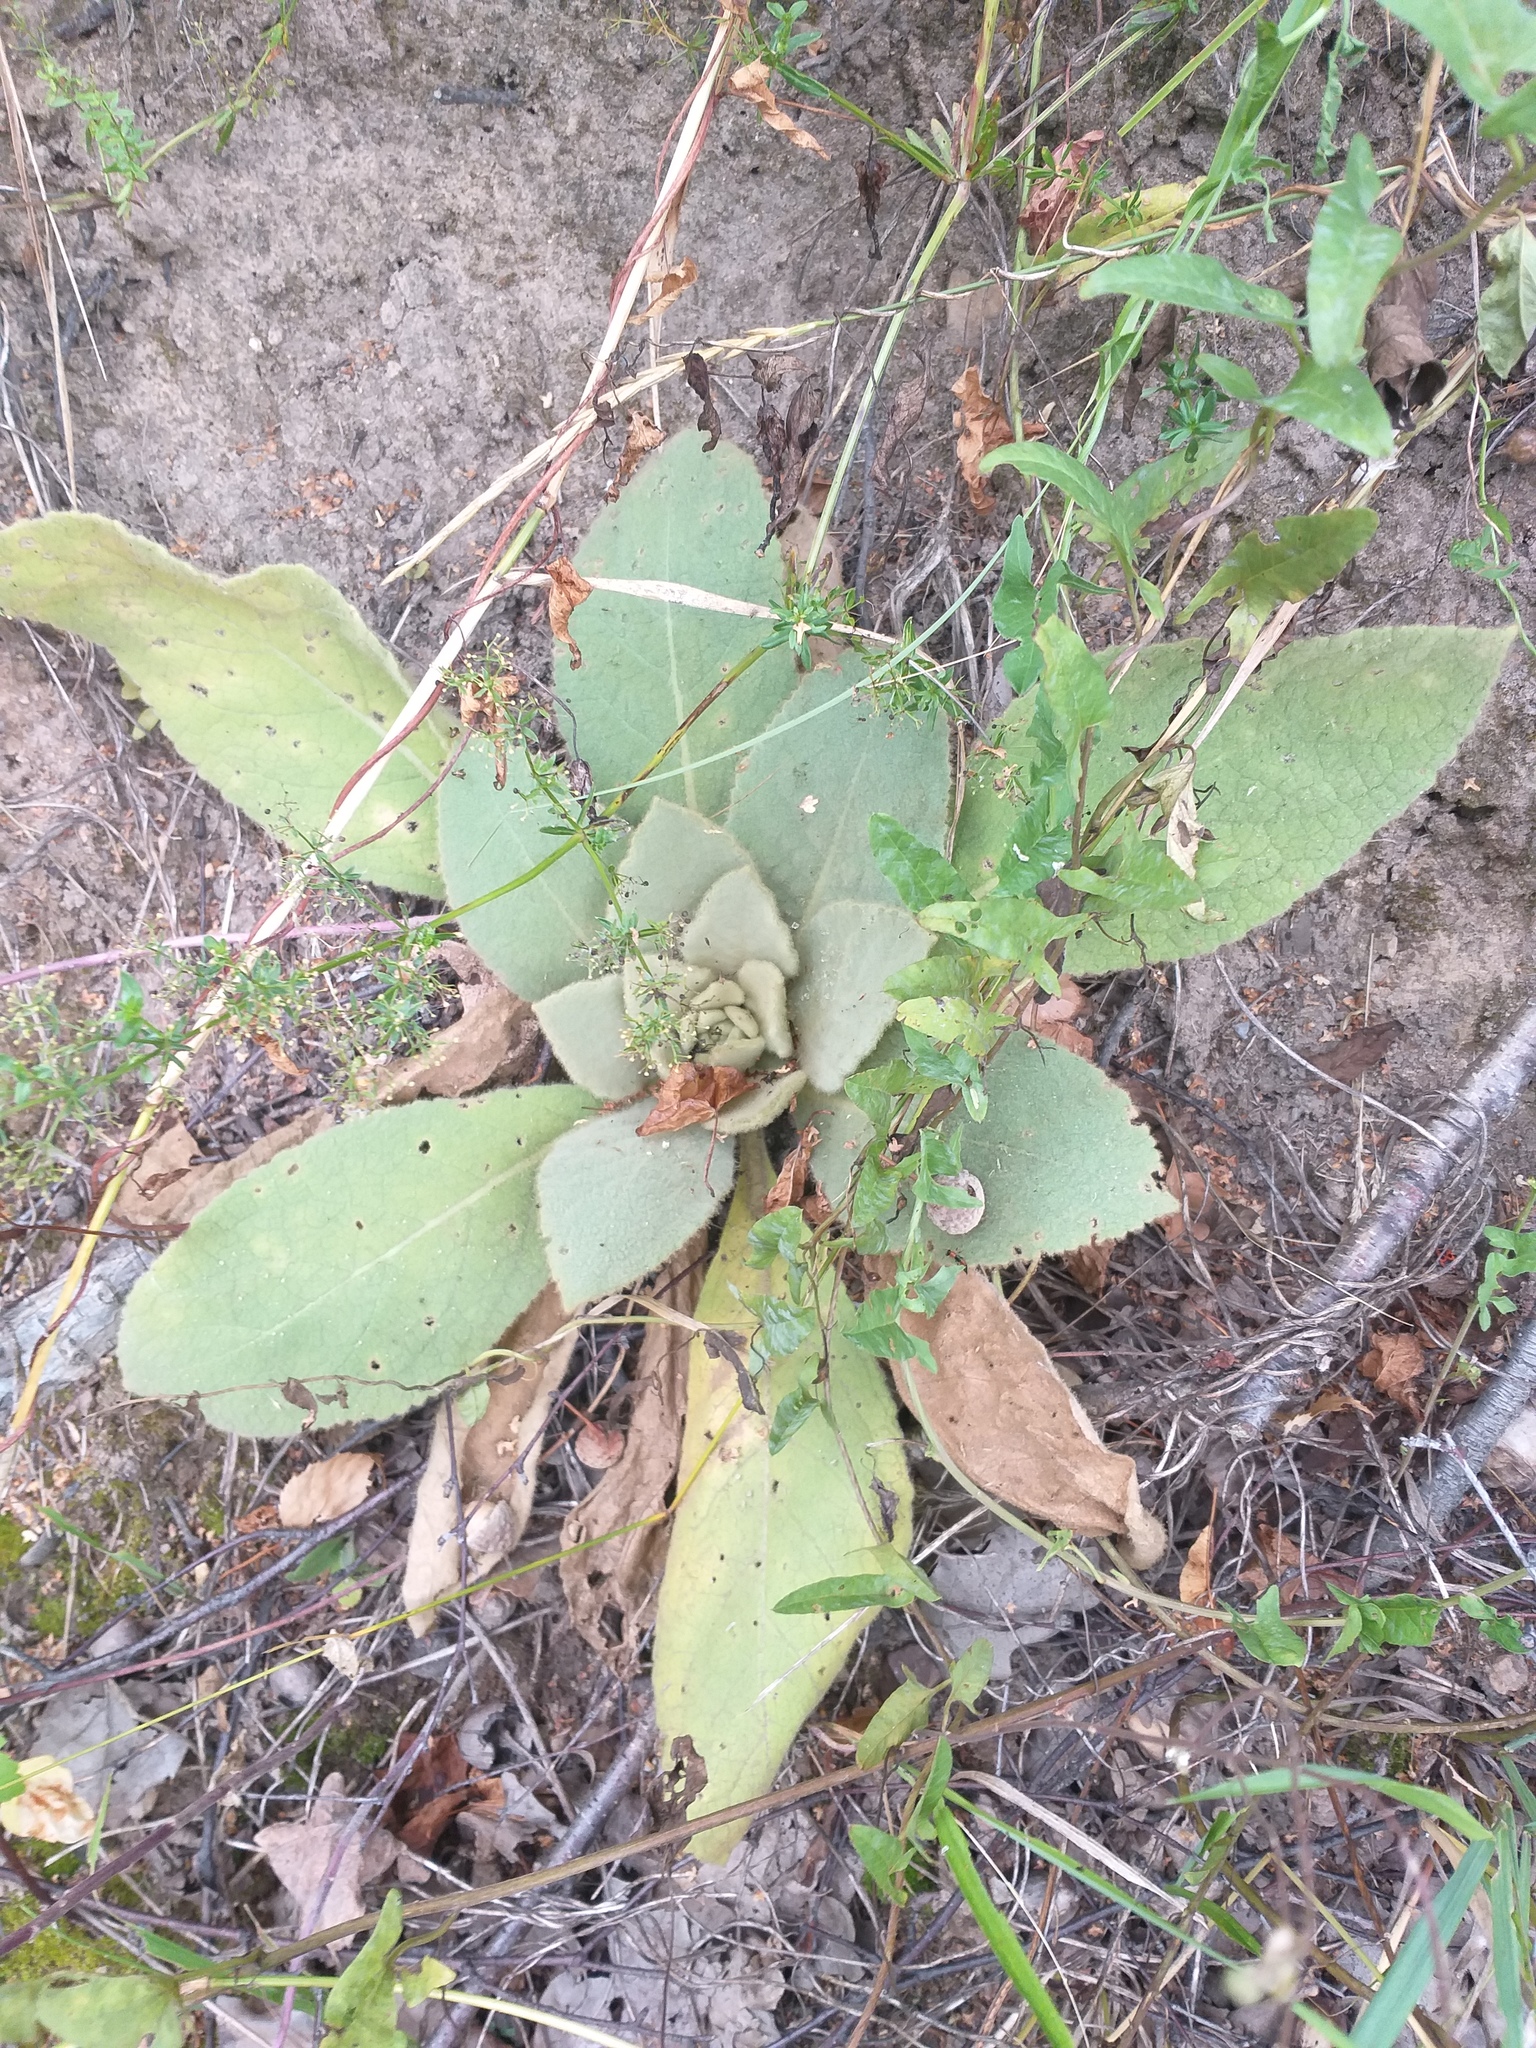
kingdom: Plantae
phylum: Tracheophyta
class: Magnoliopsida
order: Lamiales
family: Scrophulariaceae
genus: Verbascum
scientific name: Verbascum thapsus
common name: Common mullein
